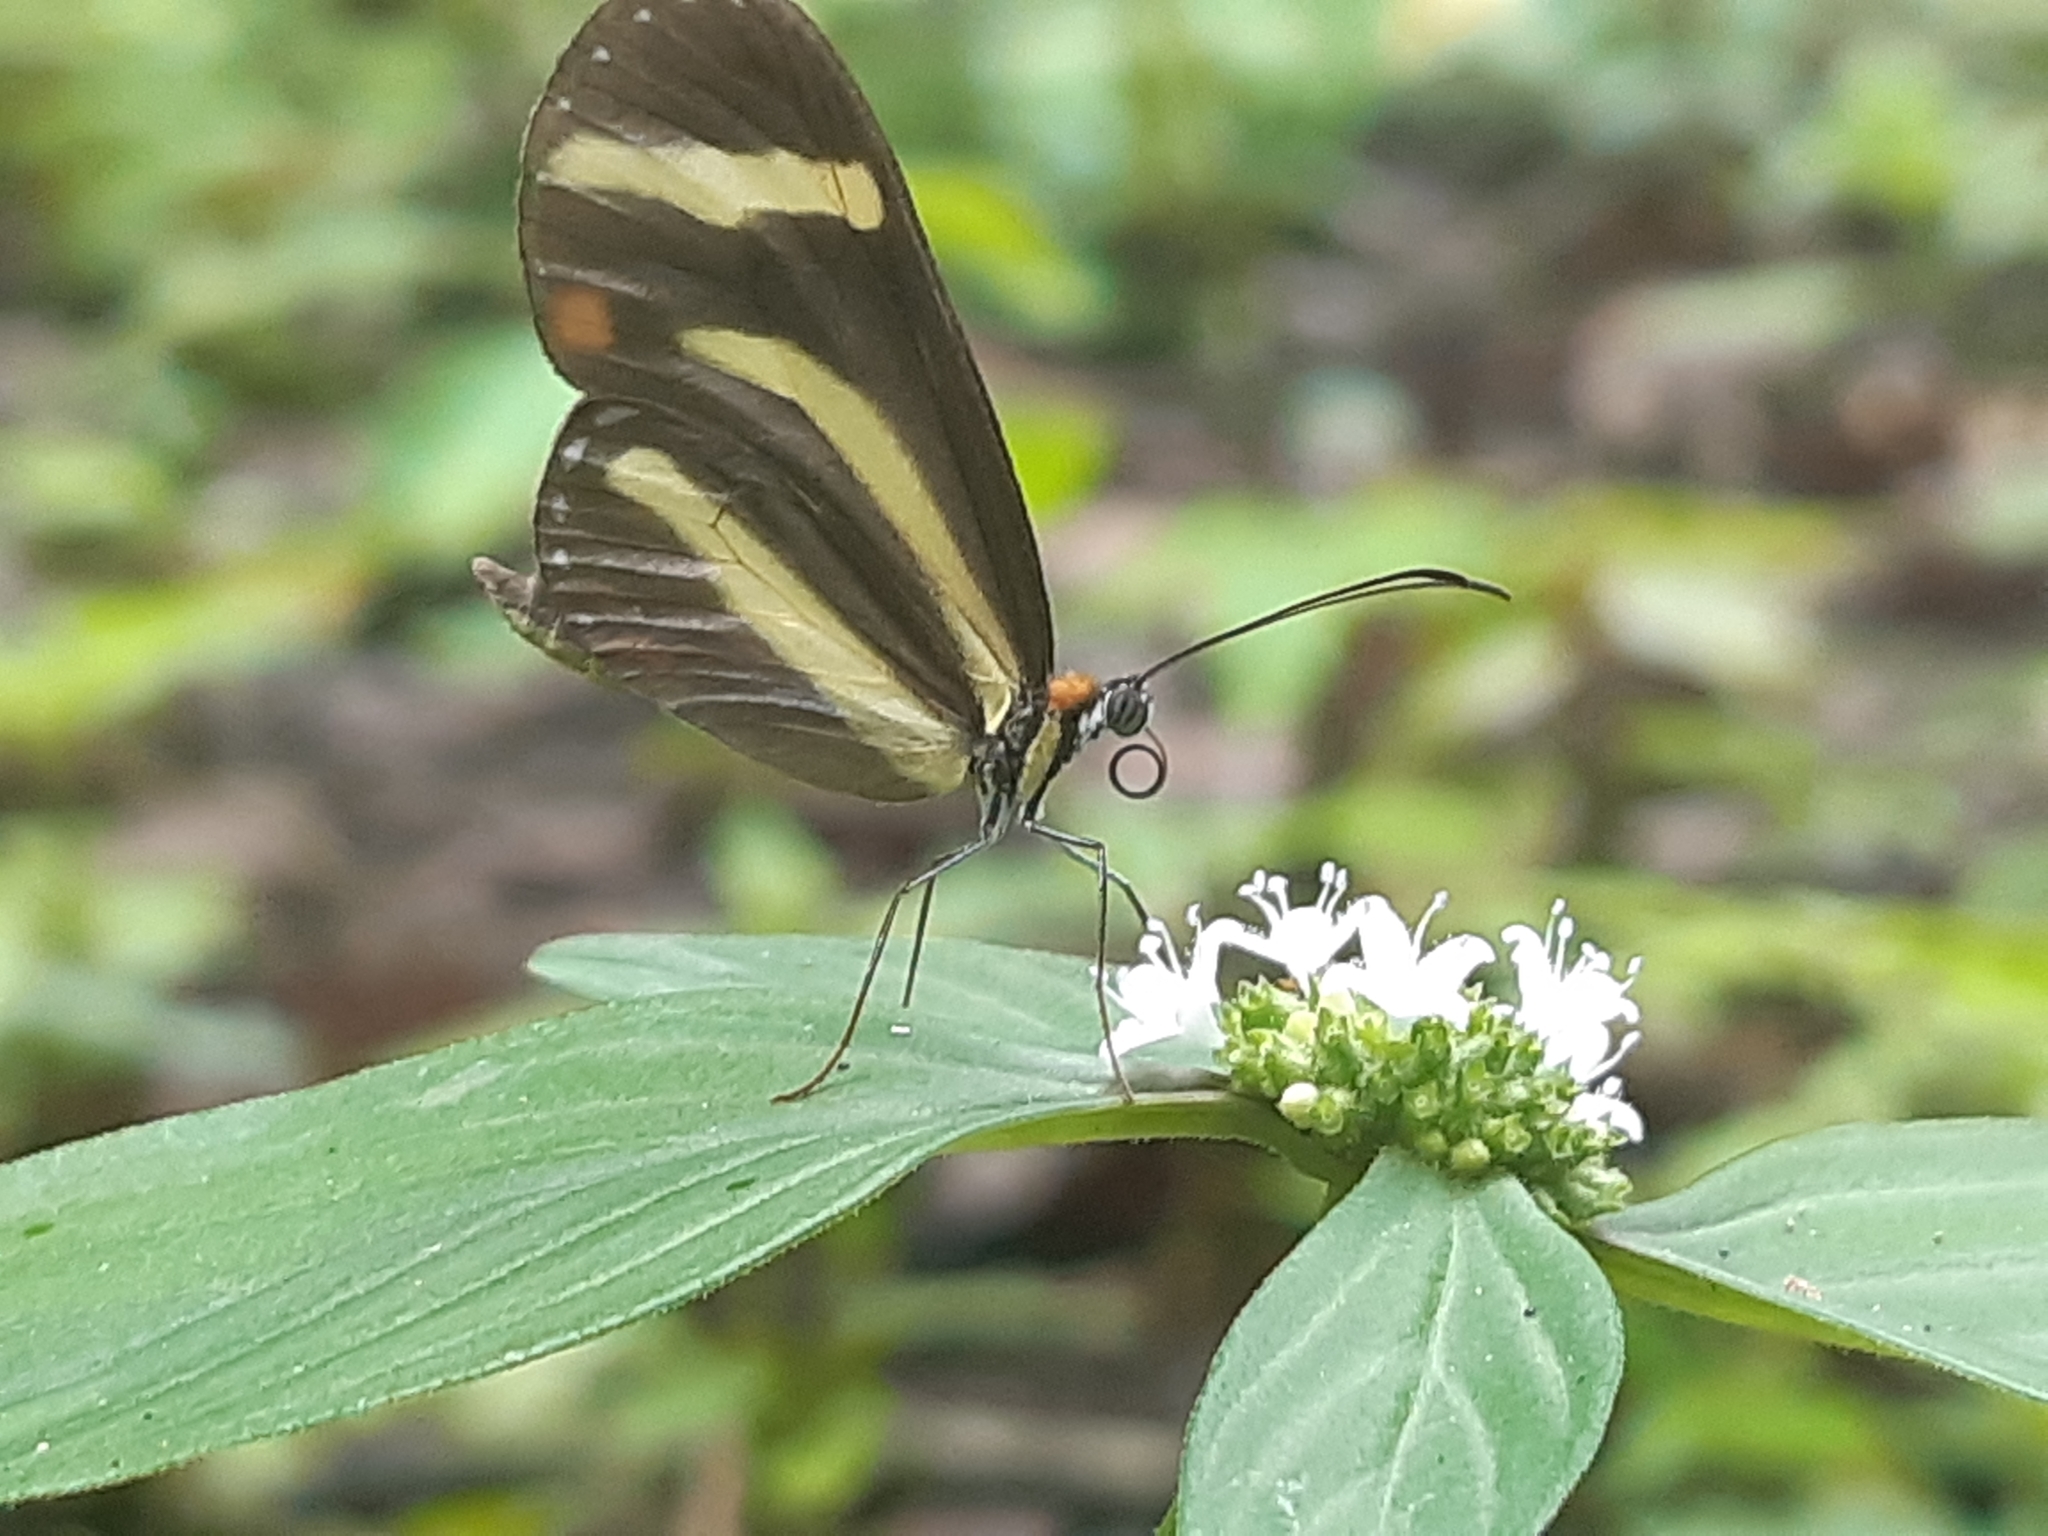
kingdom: Animalia
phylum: Arthropoda
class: Insecta
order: Lepidoptera
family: Nymphalidae
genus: Scada
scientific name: Scada
